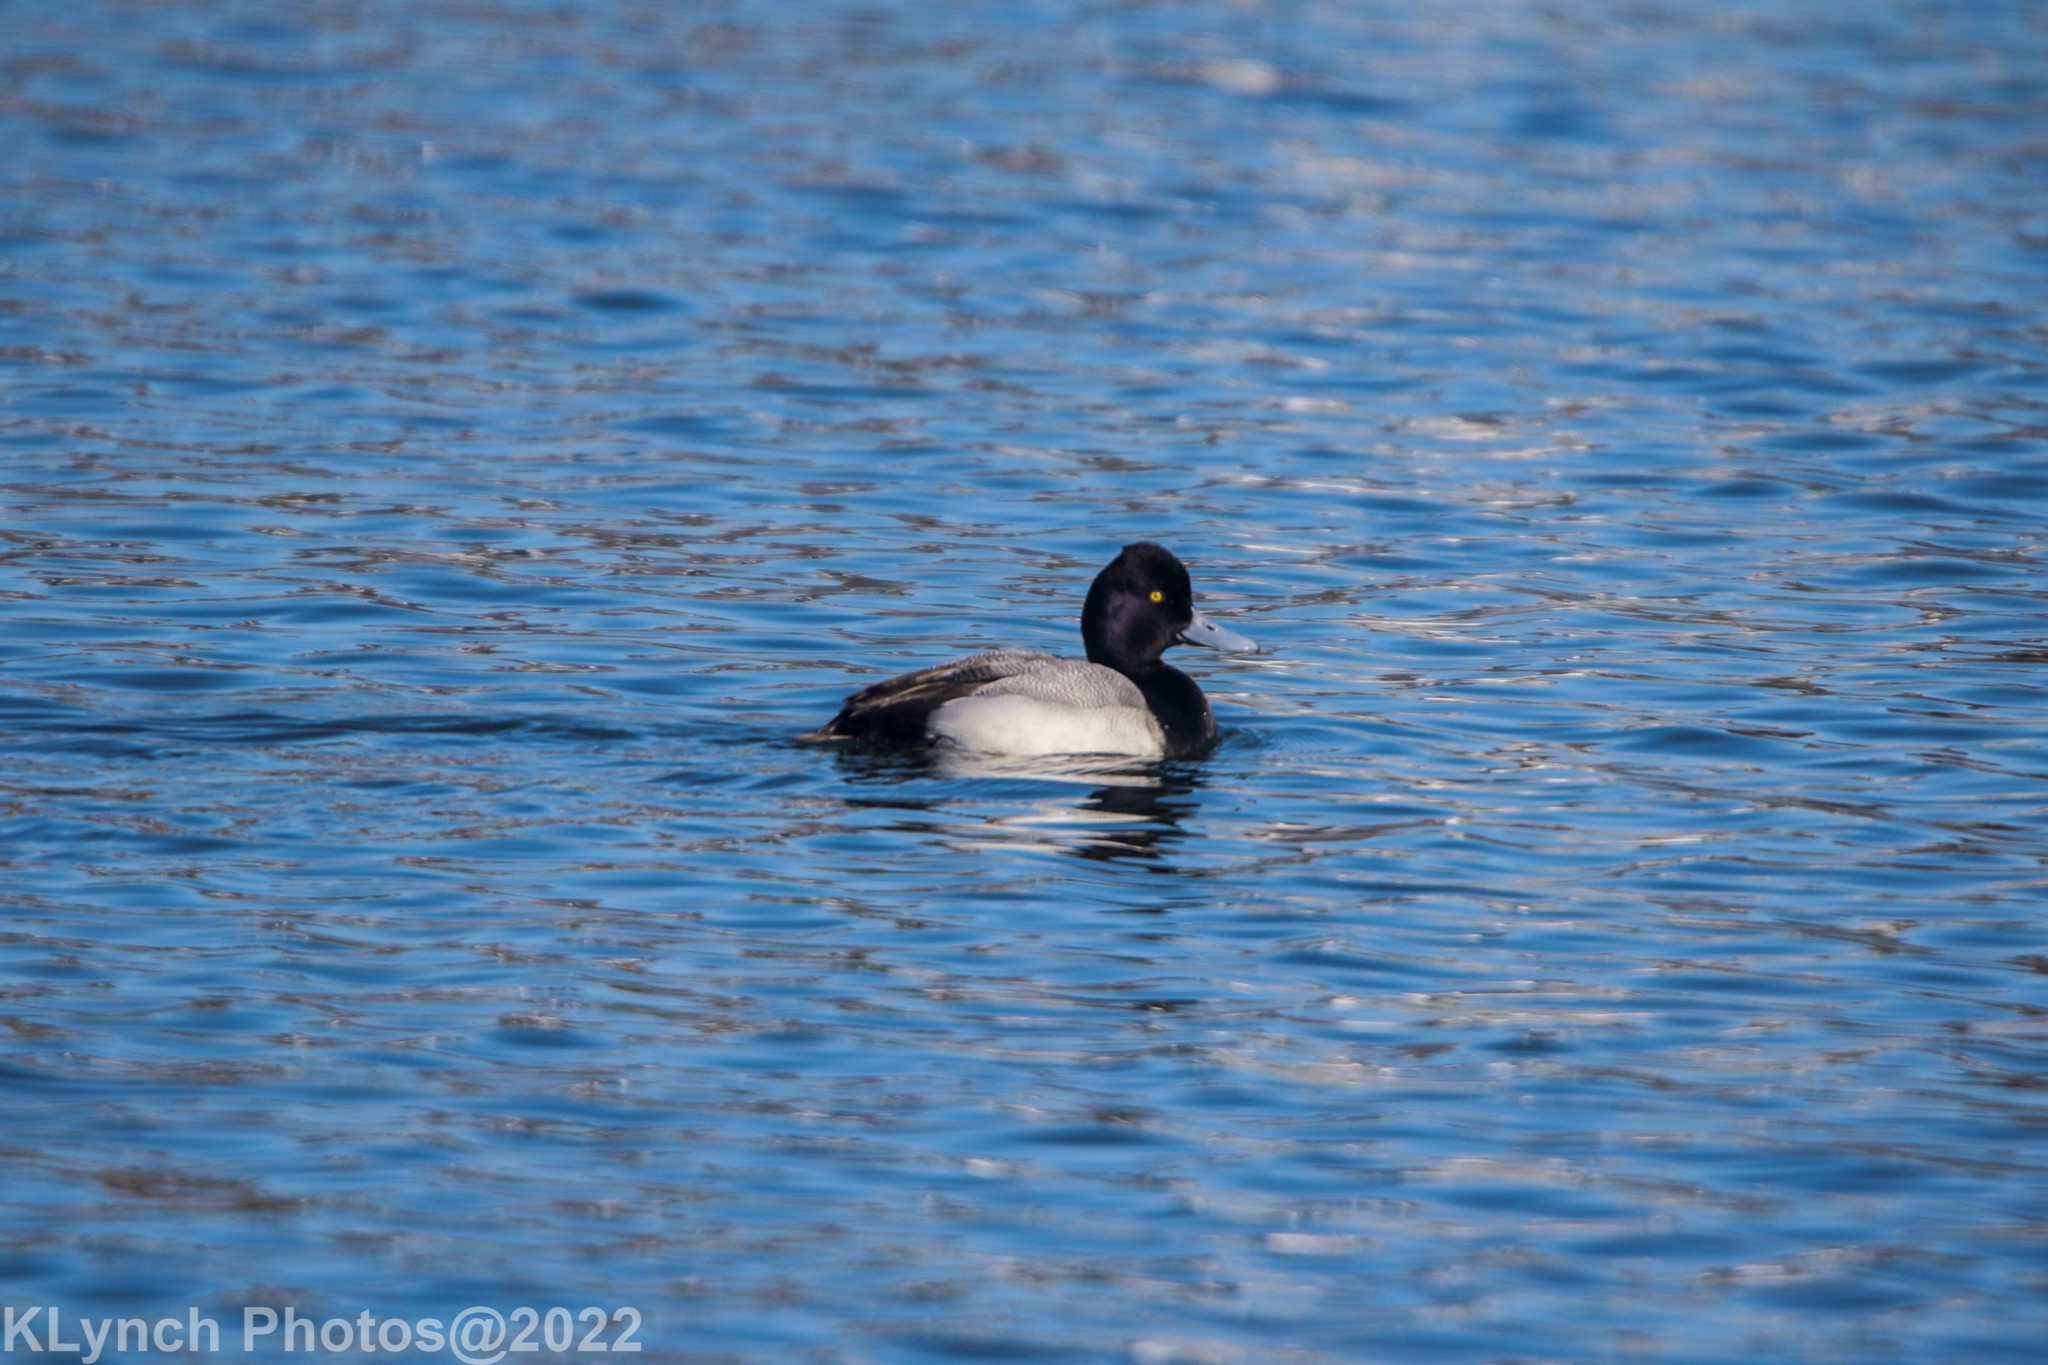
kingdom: Animalia
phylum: Chordata
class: Aves
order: Anseriformes
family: Anatidae
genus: Aythya
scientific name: Aythya affinis
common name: Lesser scaup
